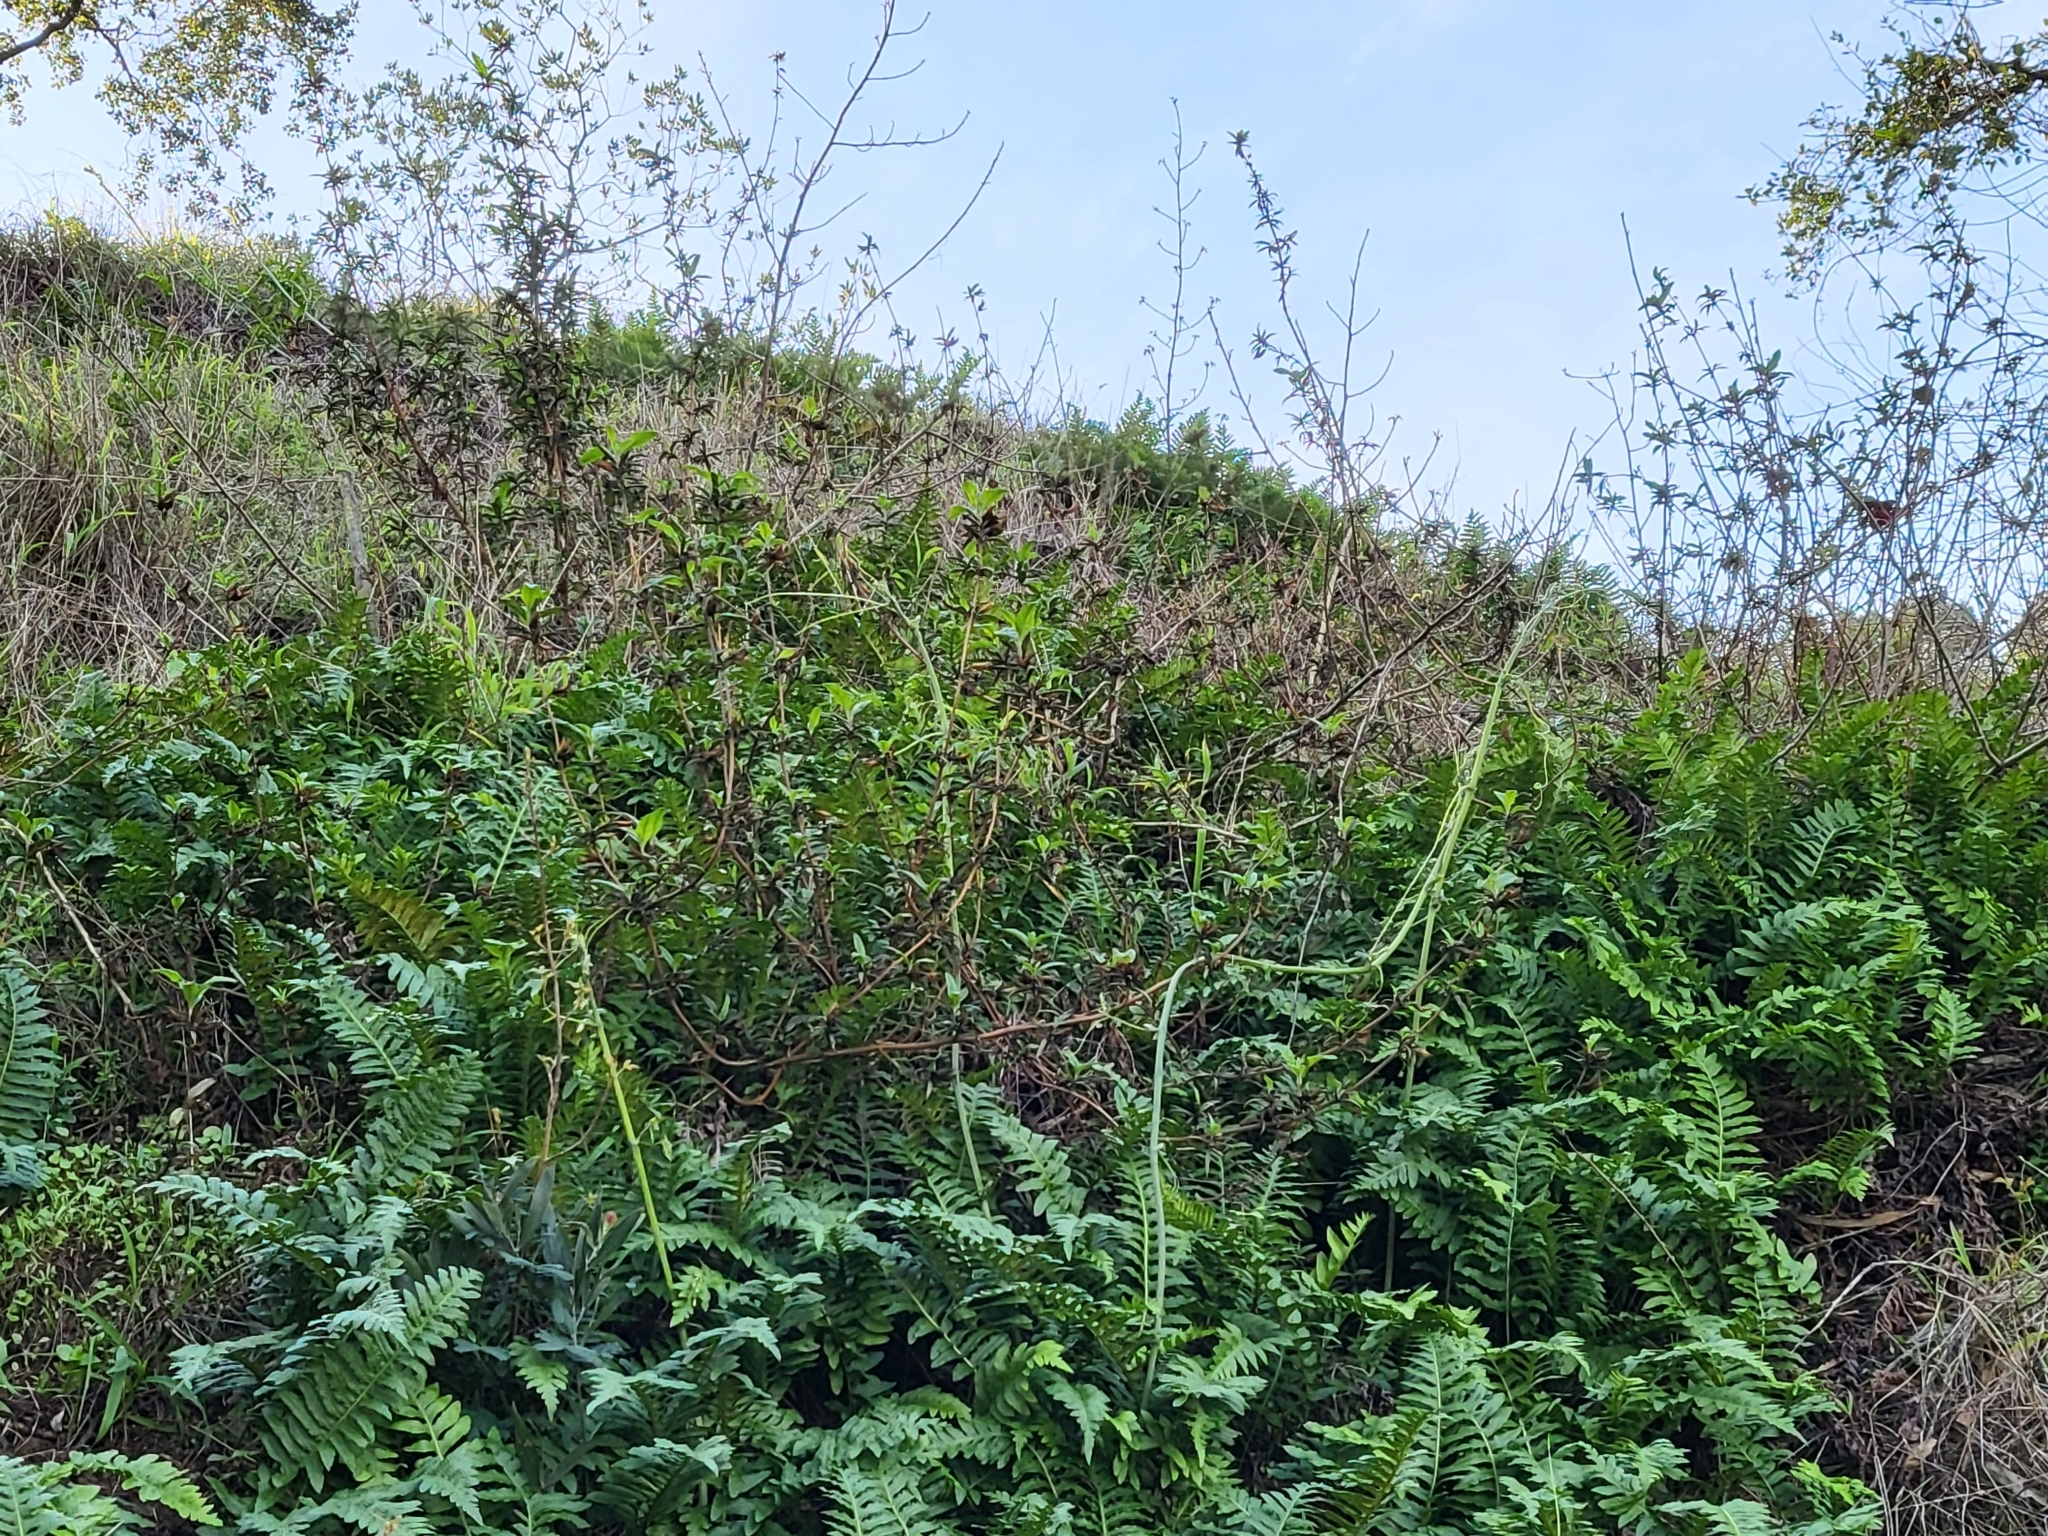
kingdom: Plantae
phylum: Tracheophyta
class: Magnoliopsida
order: Lamiales
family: Phrymaceae
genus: Diplacus
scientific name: Diplacus aurantiacus
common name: Bush monkey-flower
